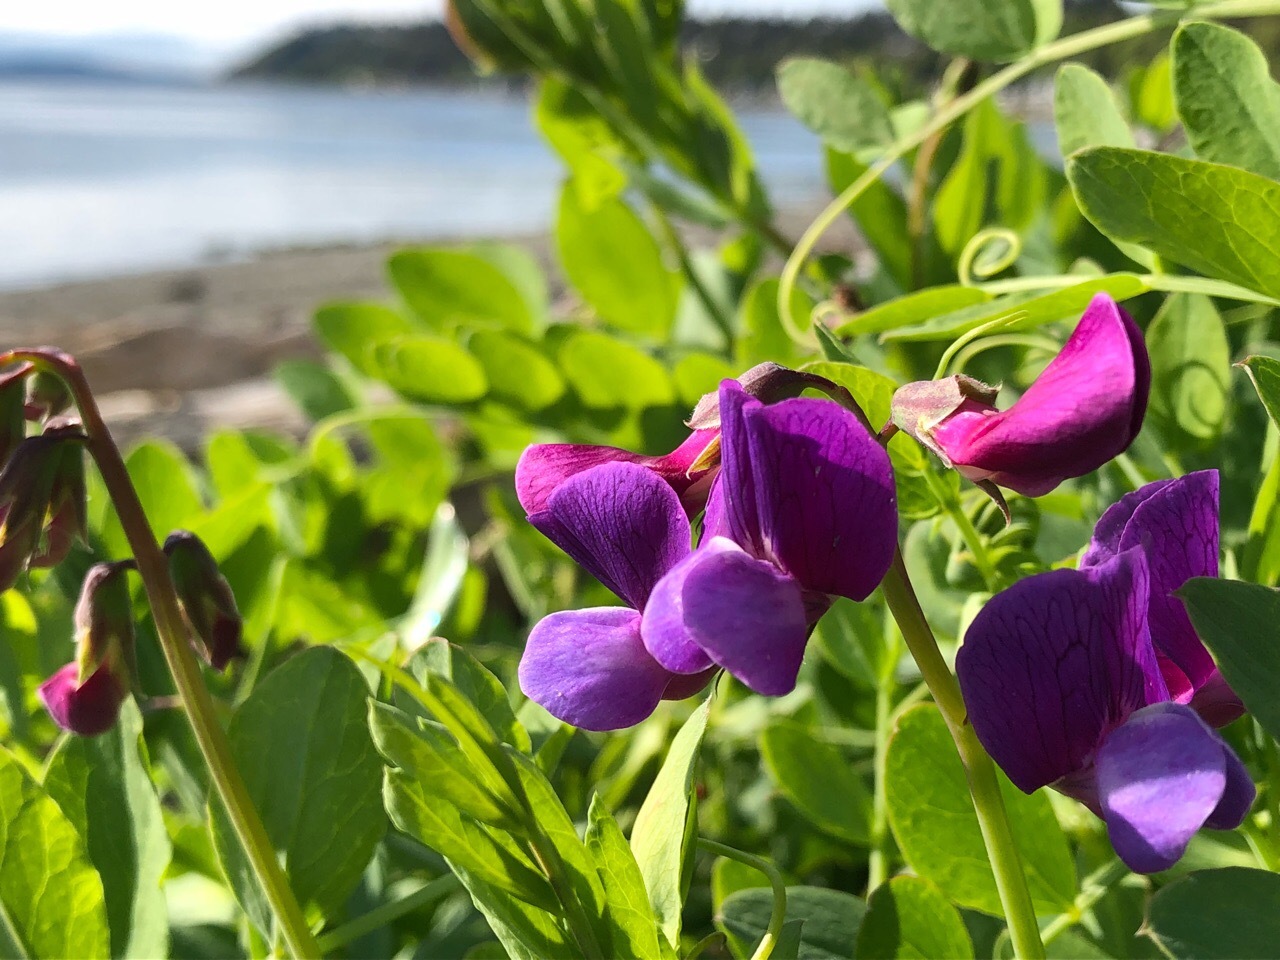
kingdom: Plantae
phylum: Tracheophyta
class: Magnoliopsida
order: Fabales
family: Fabaceae
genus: Lathyrus
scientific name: Lathyrus japonicus
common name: Sea pea
